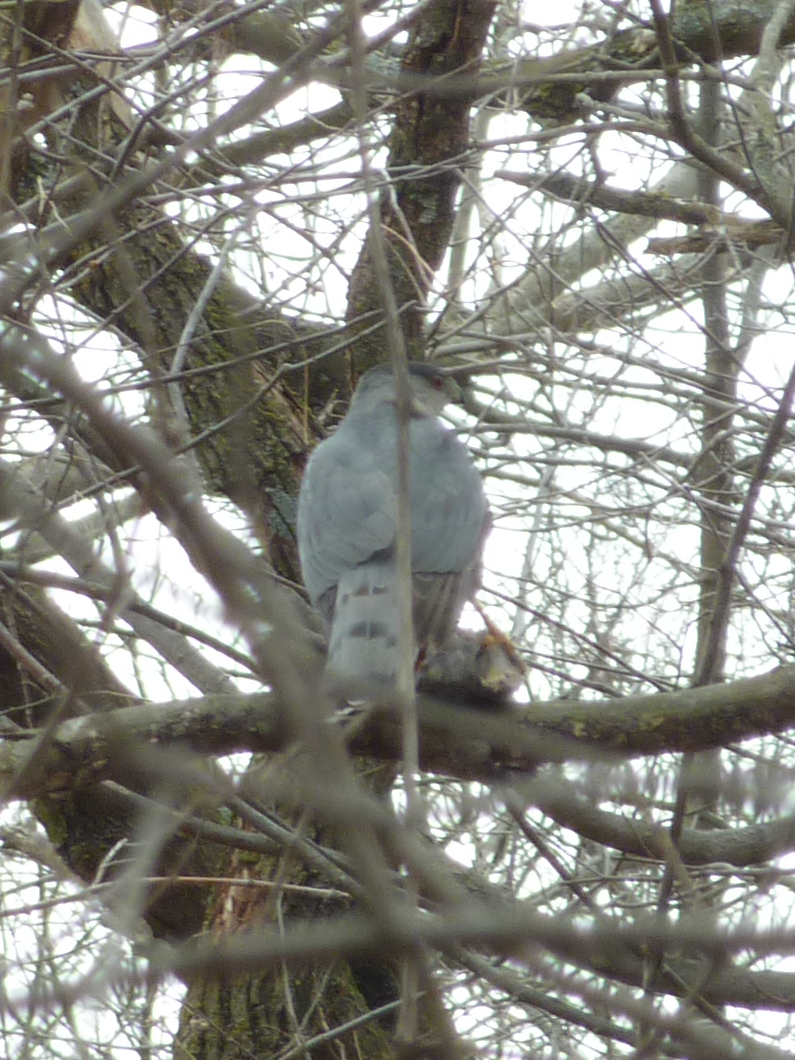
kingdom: Animalia
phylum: Chordata
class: Aves
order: Accipitriformes
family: Accipitridae
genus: Accipiter
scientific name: Accipiter cooperii
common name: Cooper's hawk
